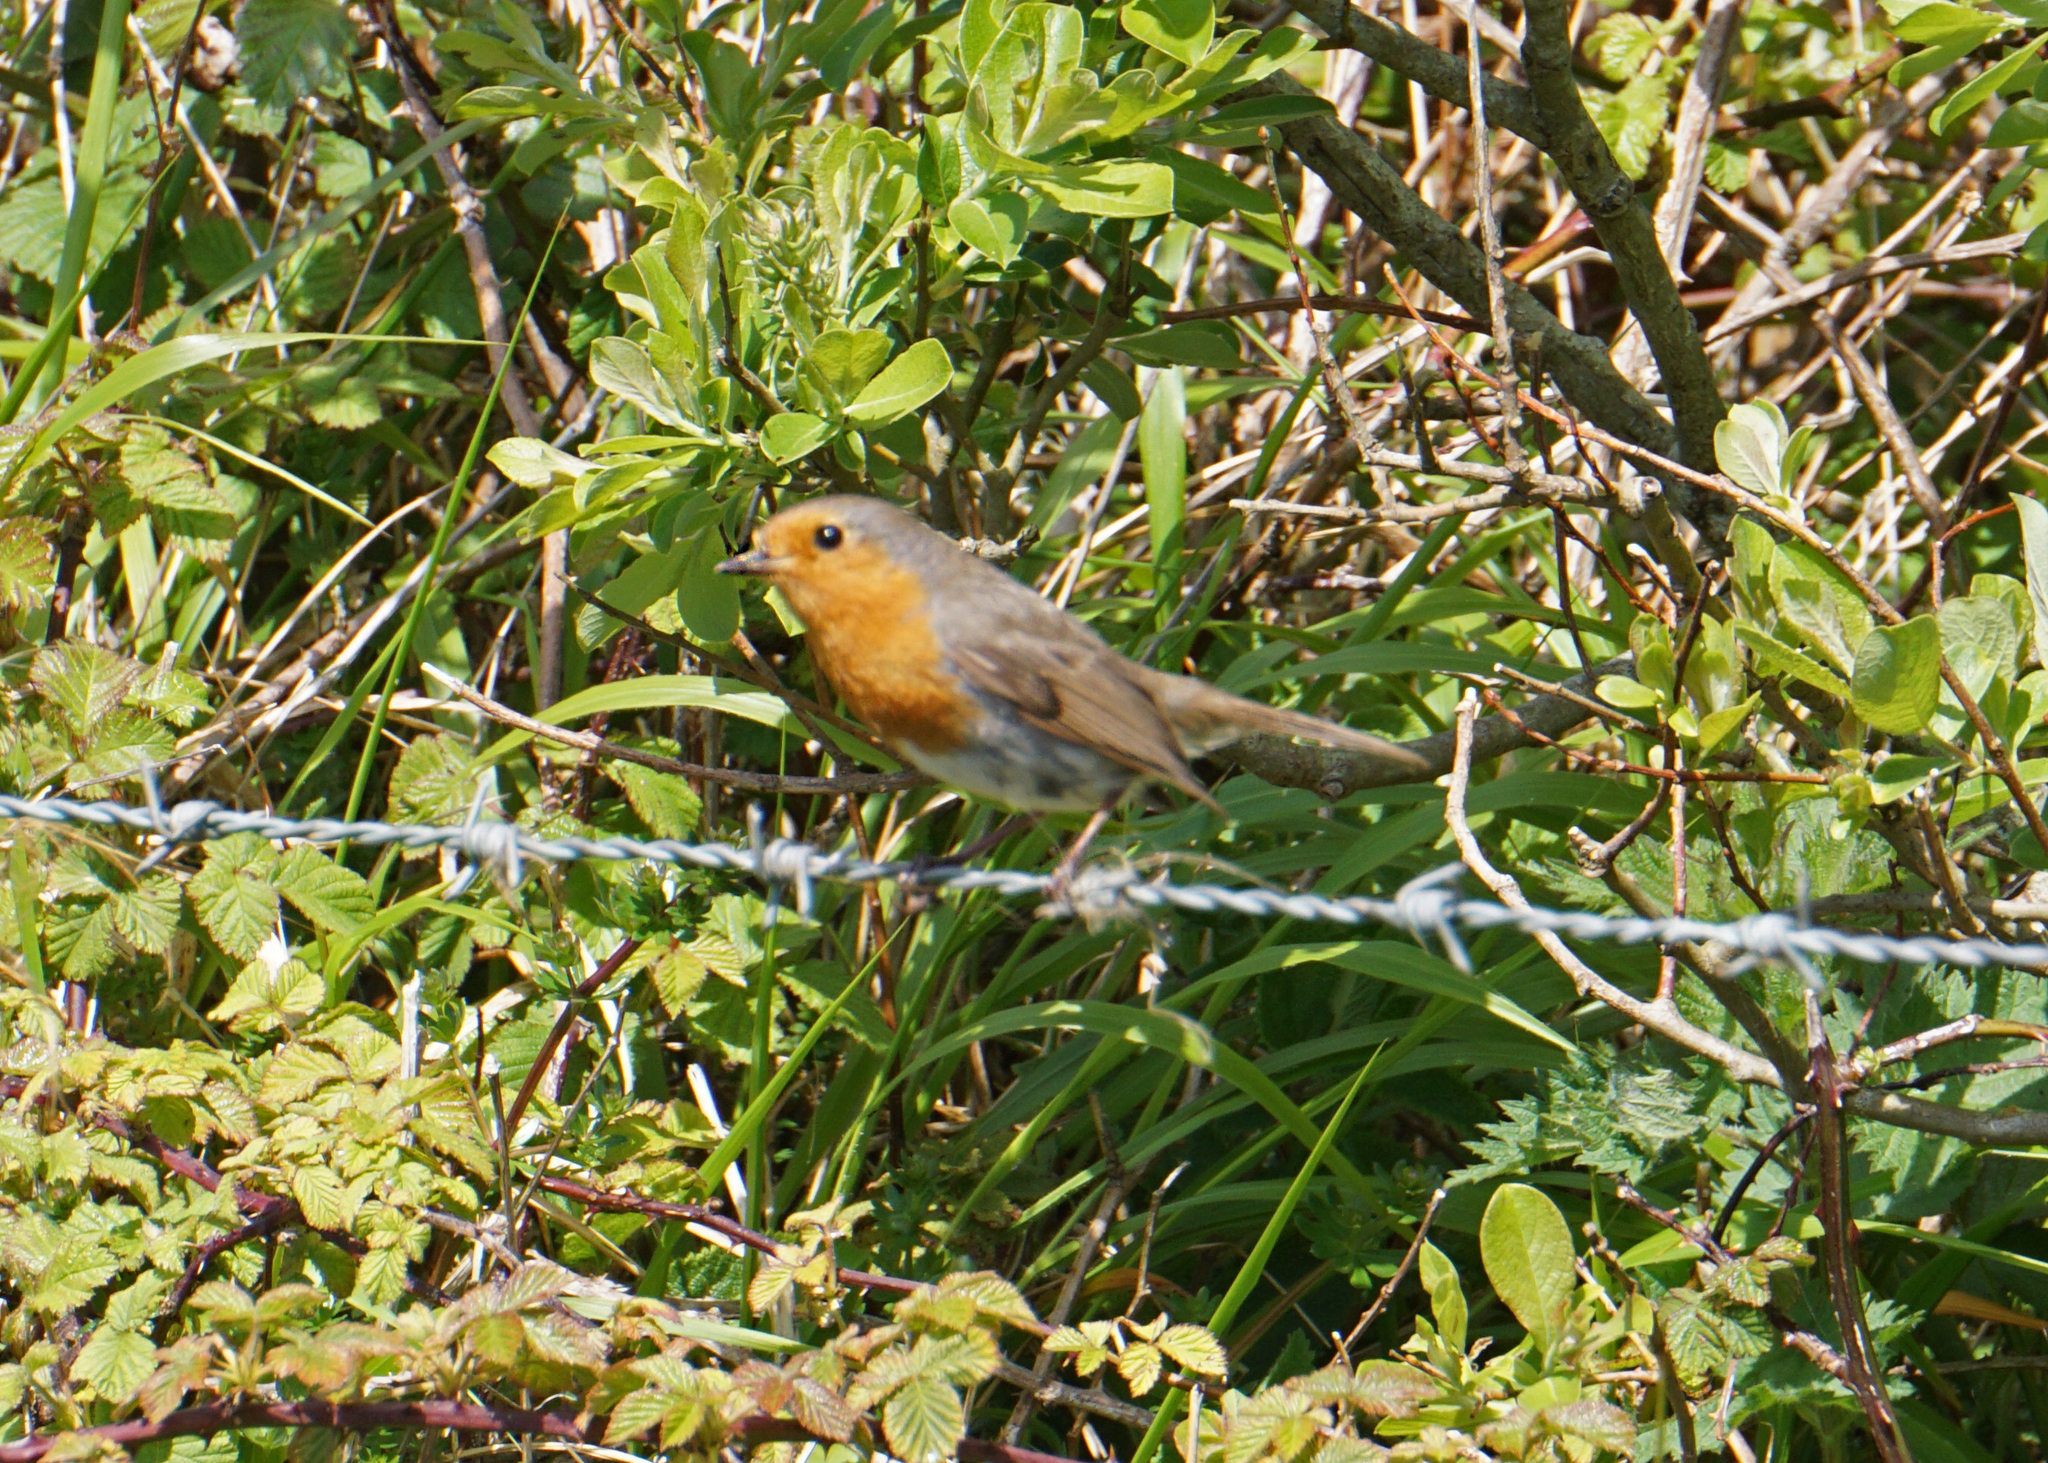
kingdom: Animalia
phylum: Chordata
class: Aves
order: Passeriformes
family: Muscicapidae
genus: Erithacus
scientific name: Erithacus rubecula
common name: European robin
